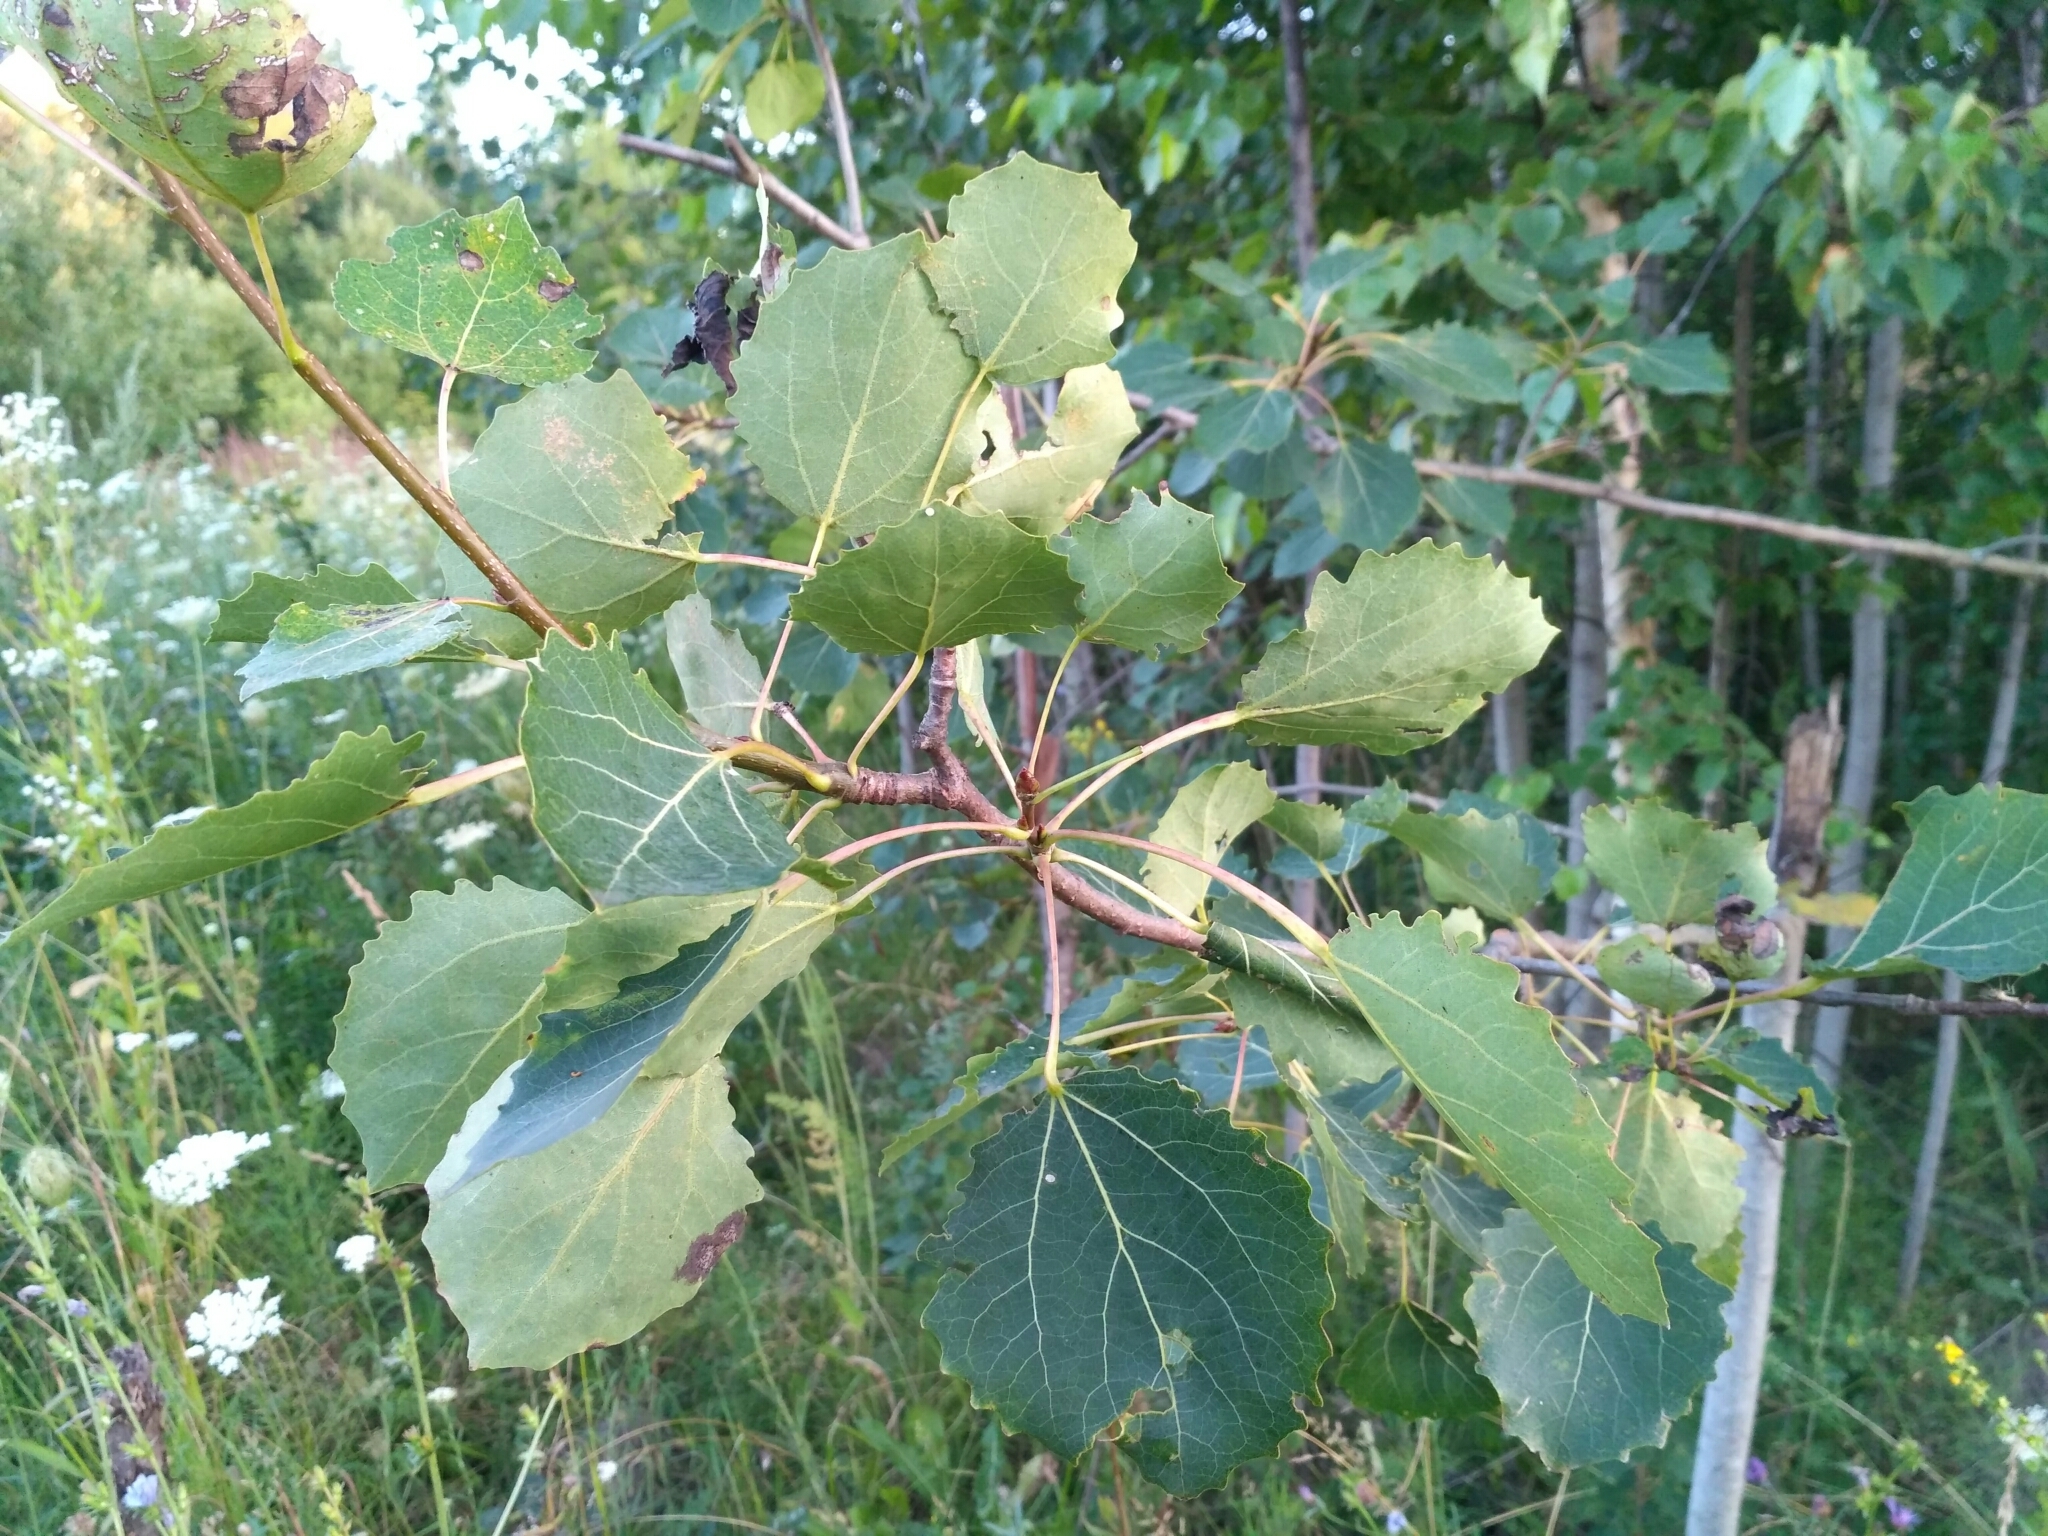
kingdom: Plantae
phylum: Tracheophyta
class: Magnoliopsida
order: Malpighiales
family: Salicaceae
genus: Populus
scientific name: Populus tremula
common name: European aspen
